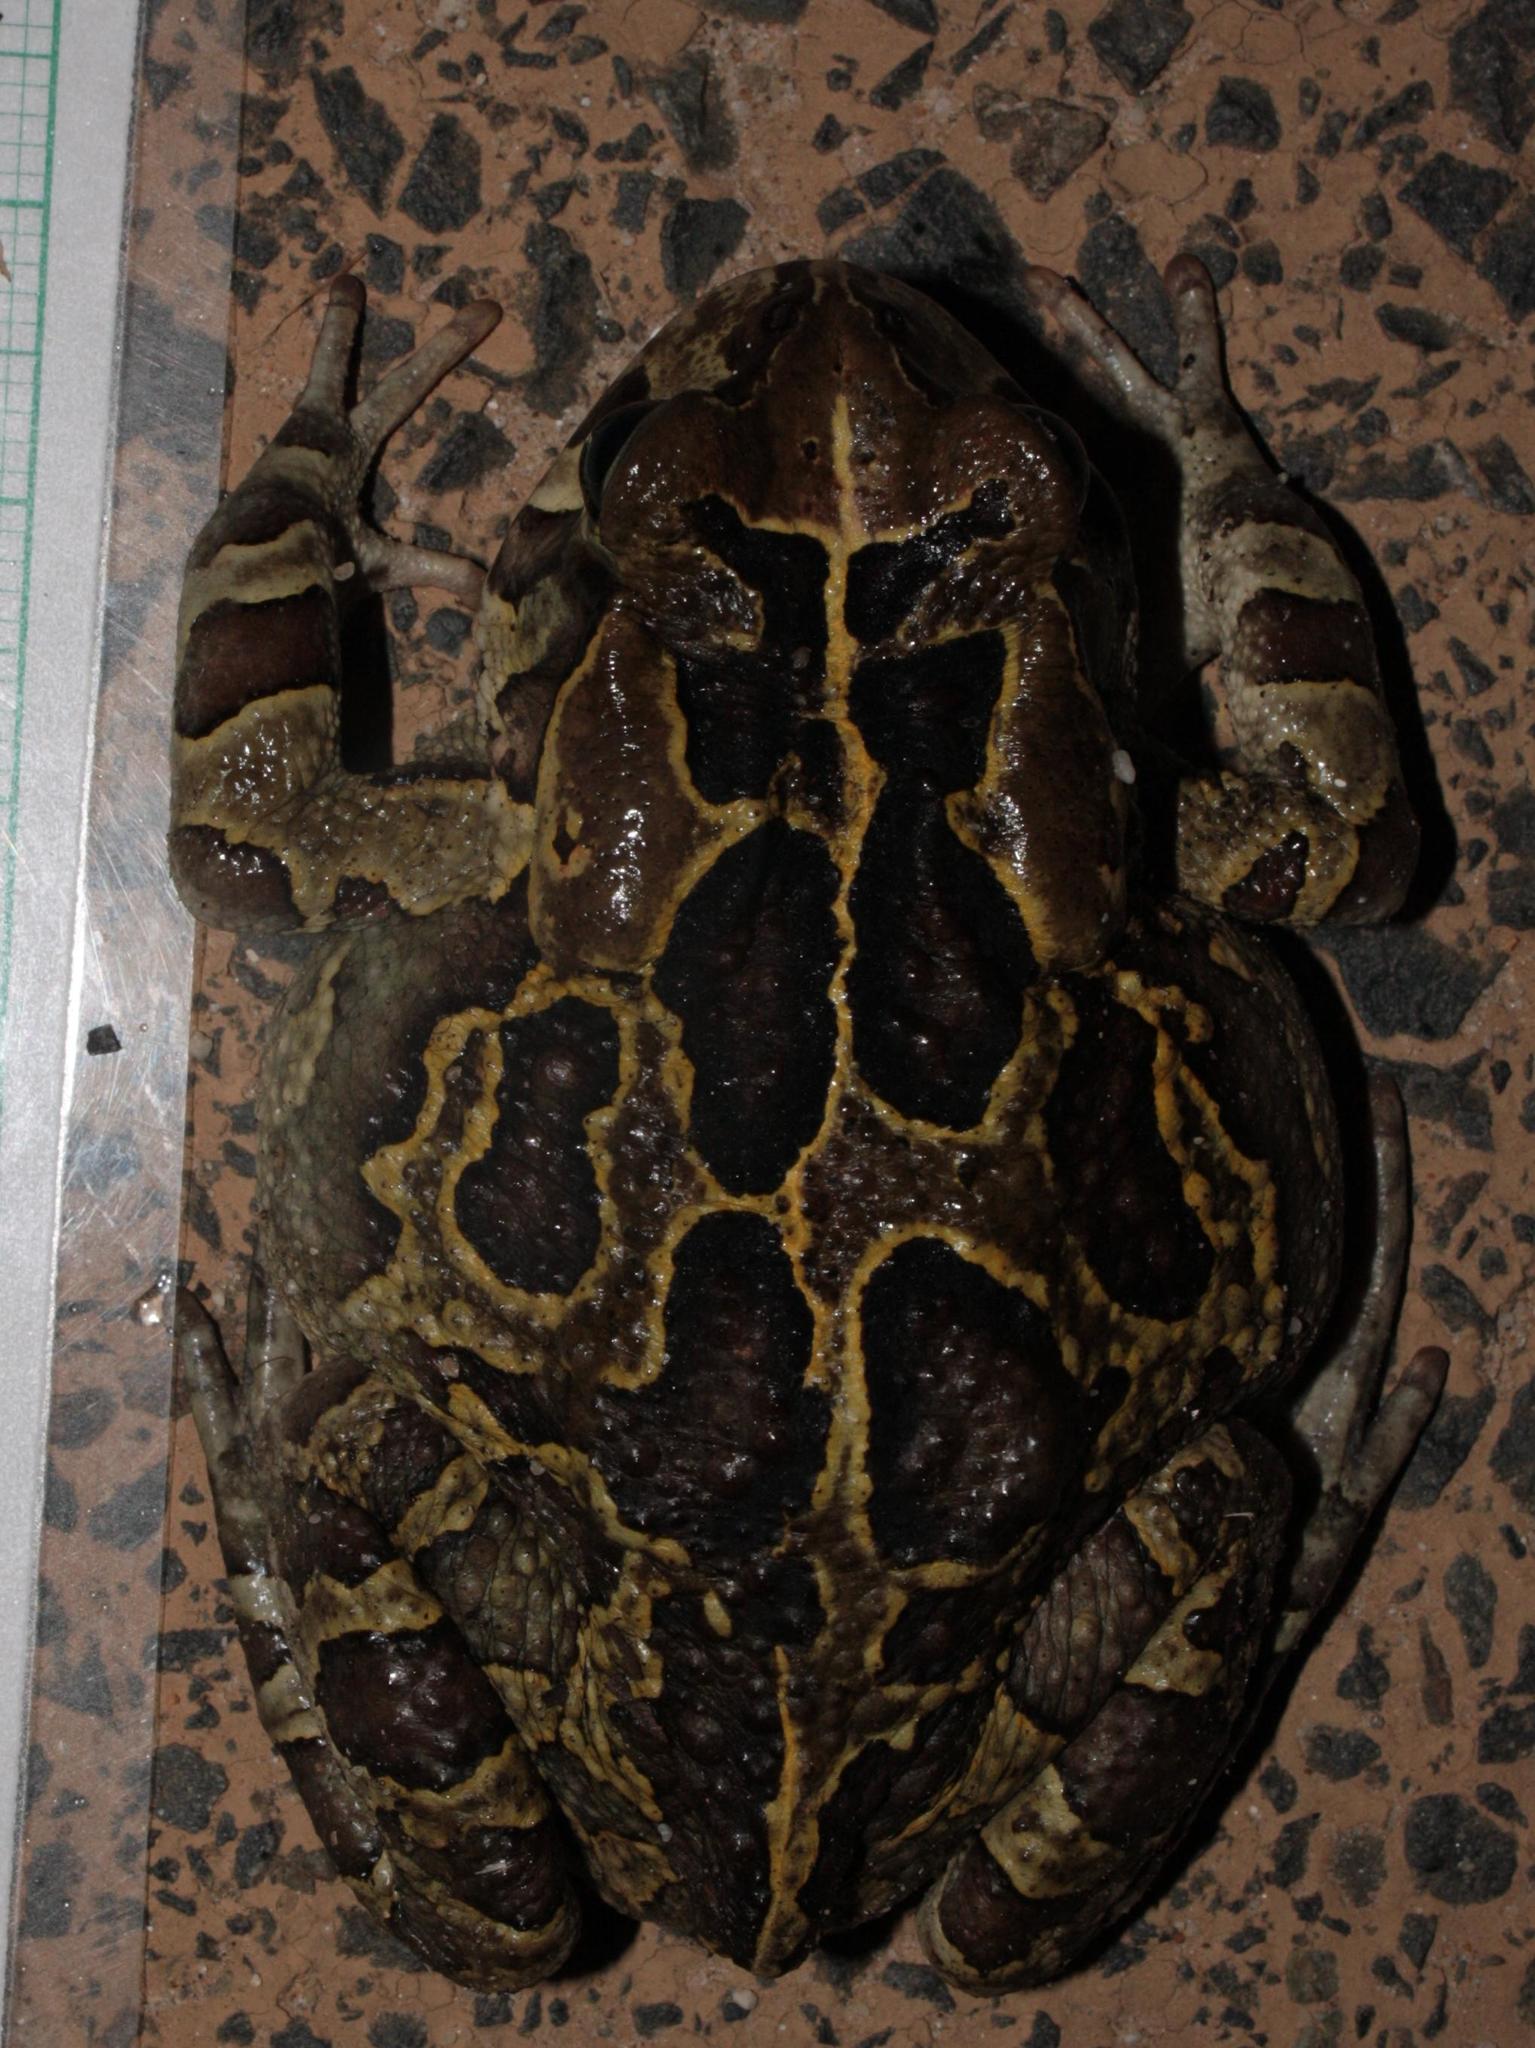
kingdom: Animalia
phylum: Chordata
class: Amphibia
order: Anura
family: Bufonidae
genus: Sclerophrys
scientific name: Sclerophrys pantherina
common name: Panther toad
